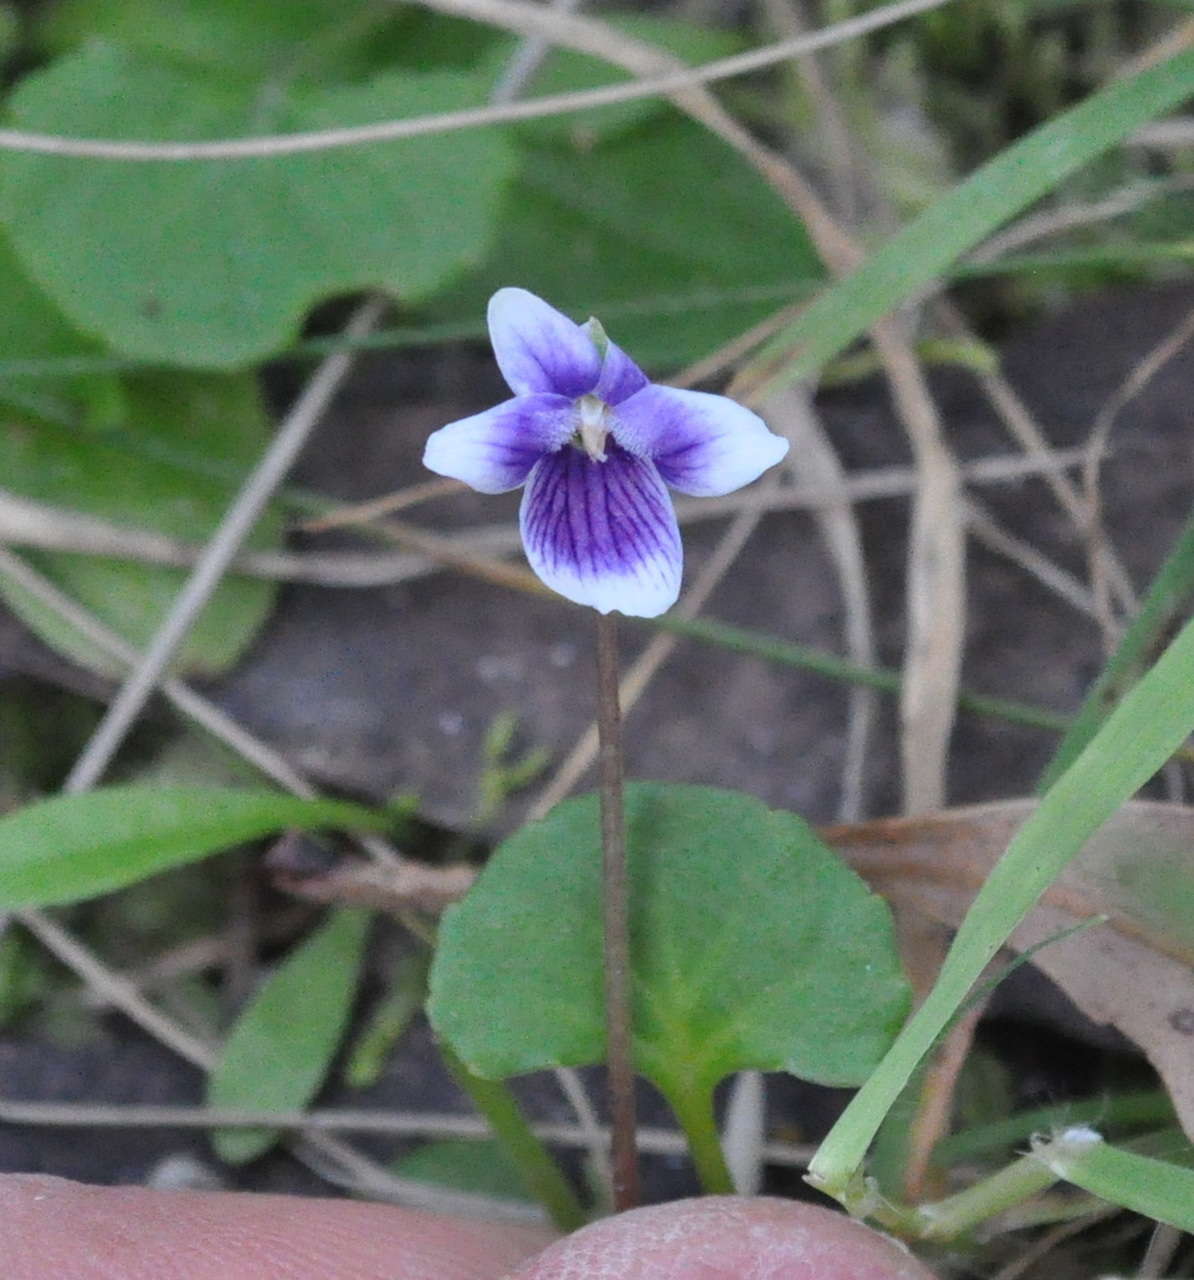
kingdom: Plantae
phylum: Tracheophyta
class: Magnoliopsida
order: Malpighiales
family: Violaceae
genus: Viola
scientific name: Viola hederacea
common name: Australian violet
